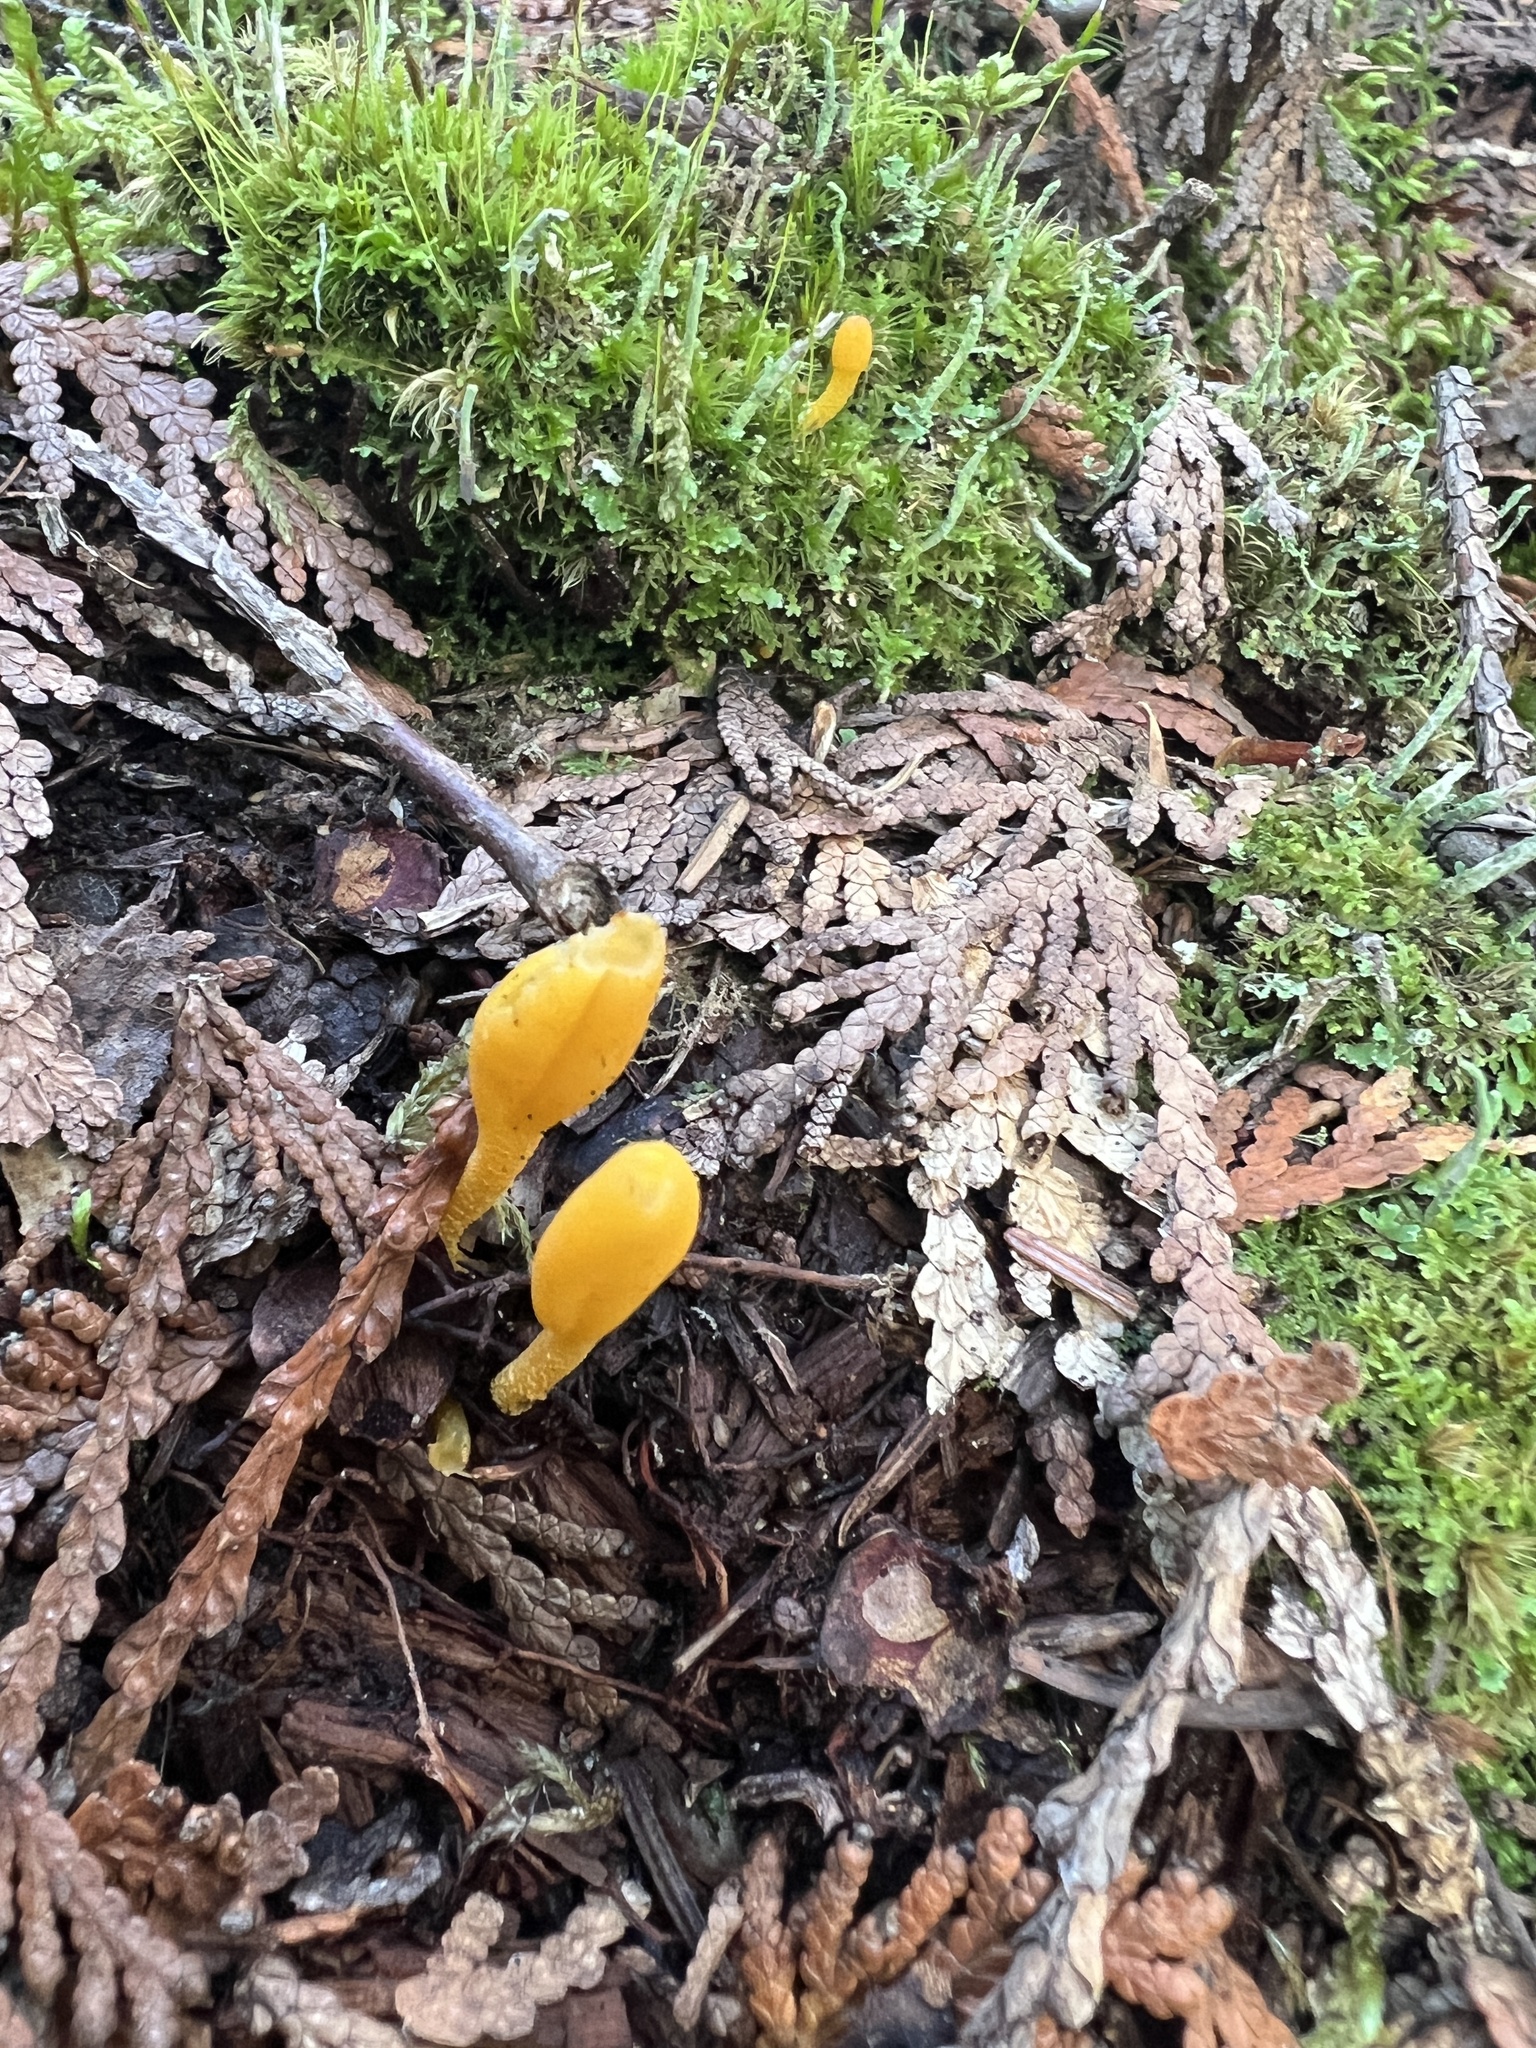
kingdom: Fungi
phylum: Ascomycota
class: Leotiomycetes
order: Leotiales
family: Leotiaceae
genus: Microglossum
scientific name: Microglossum rufum
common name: Orange earthtongue
